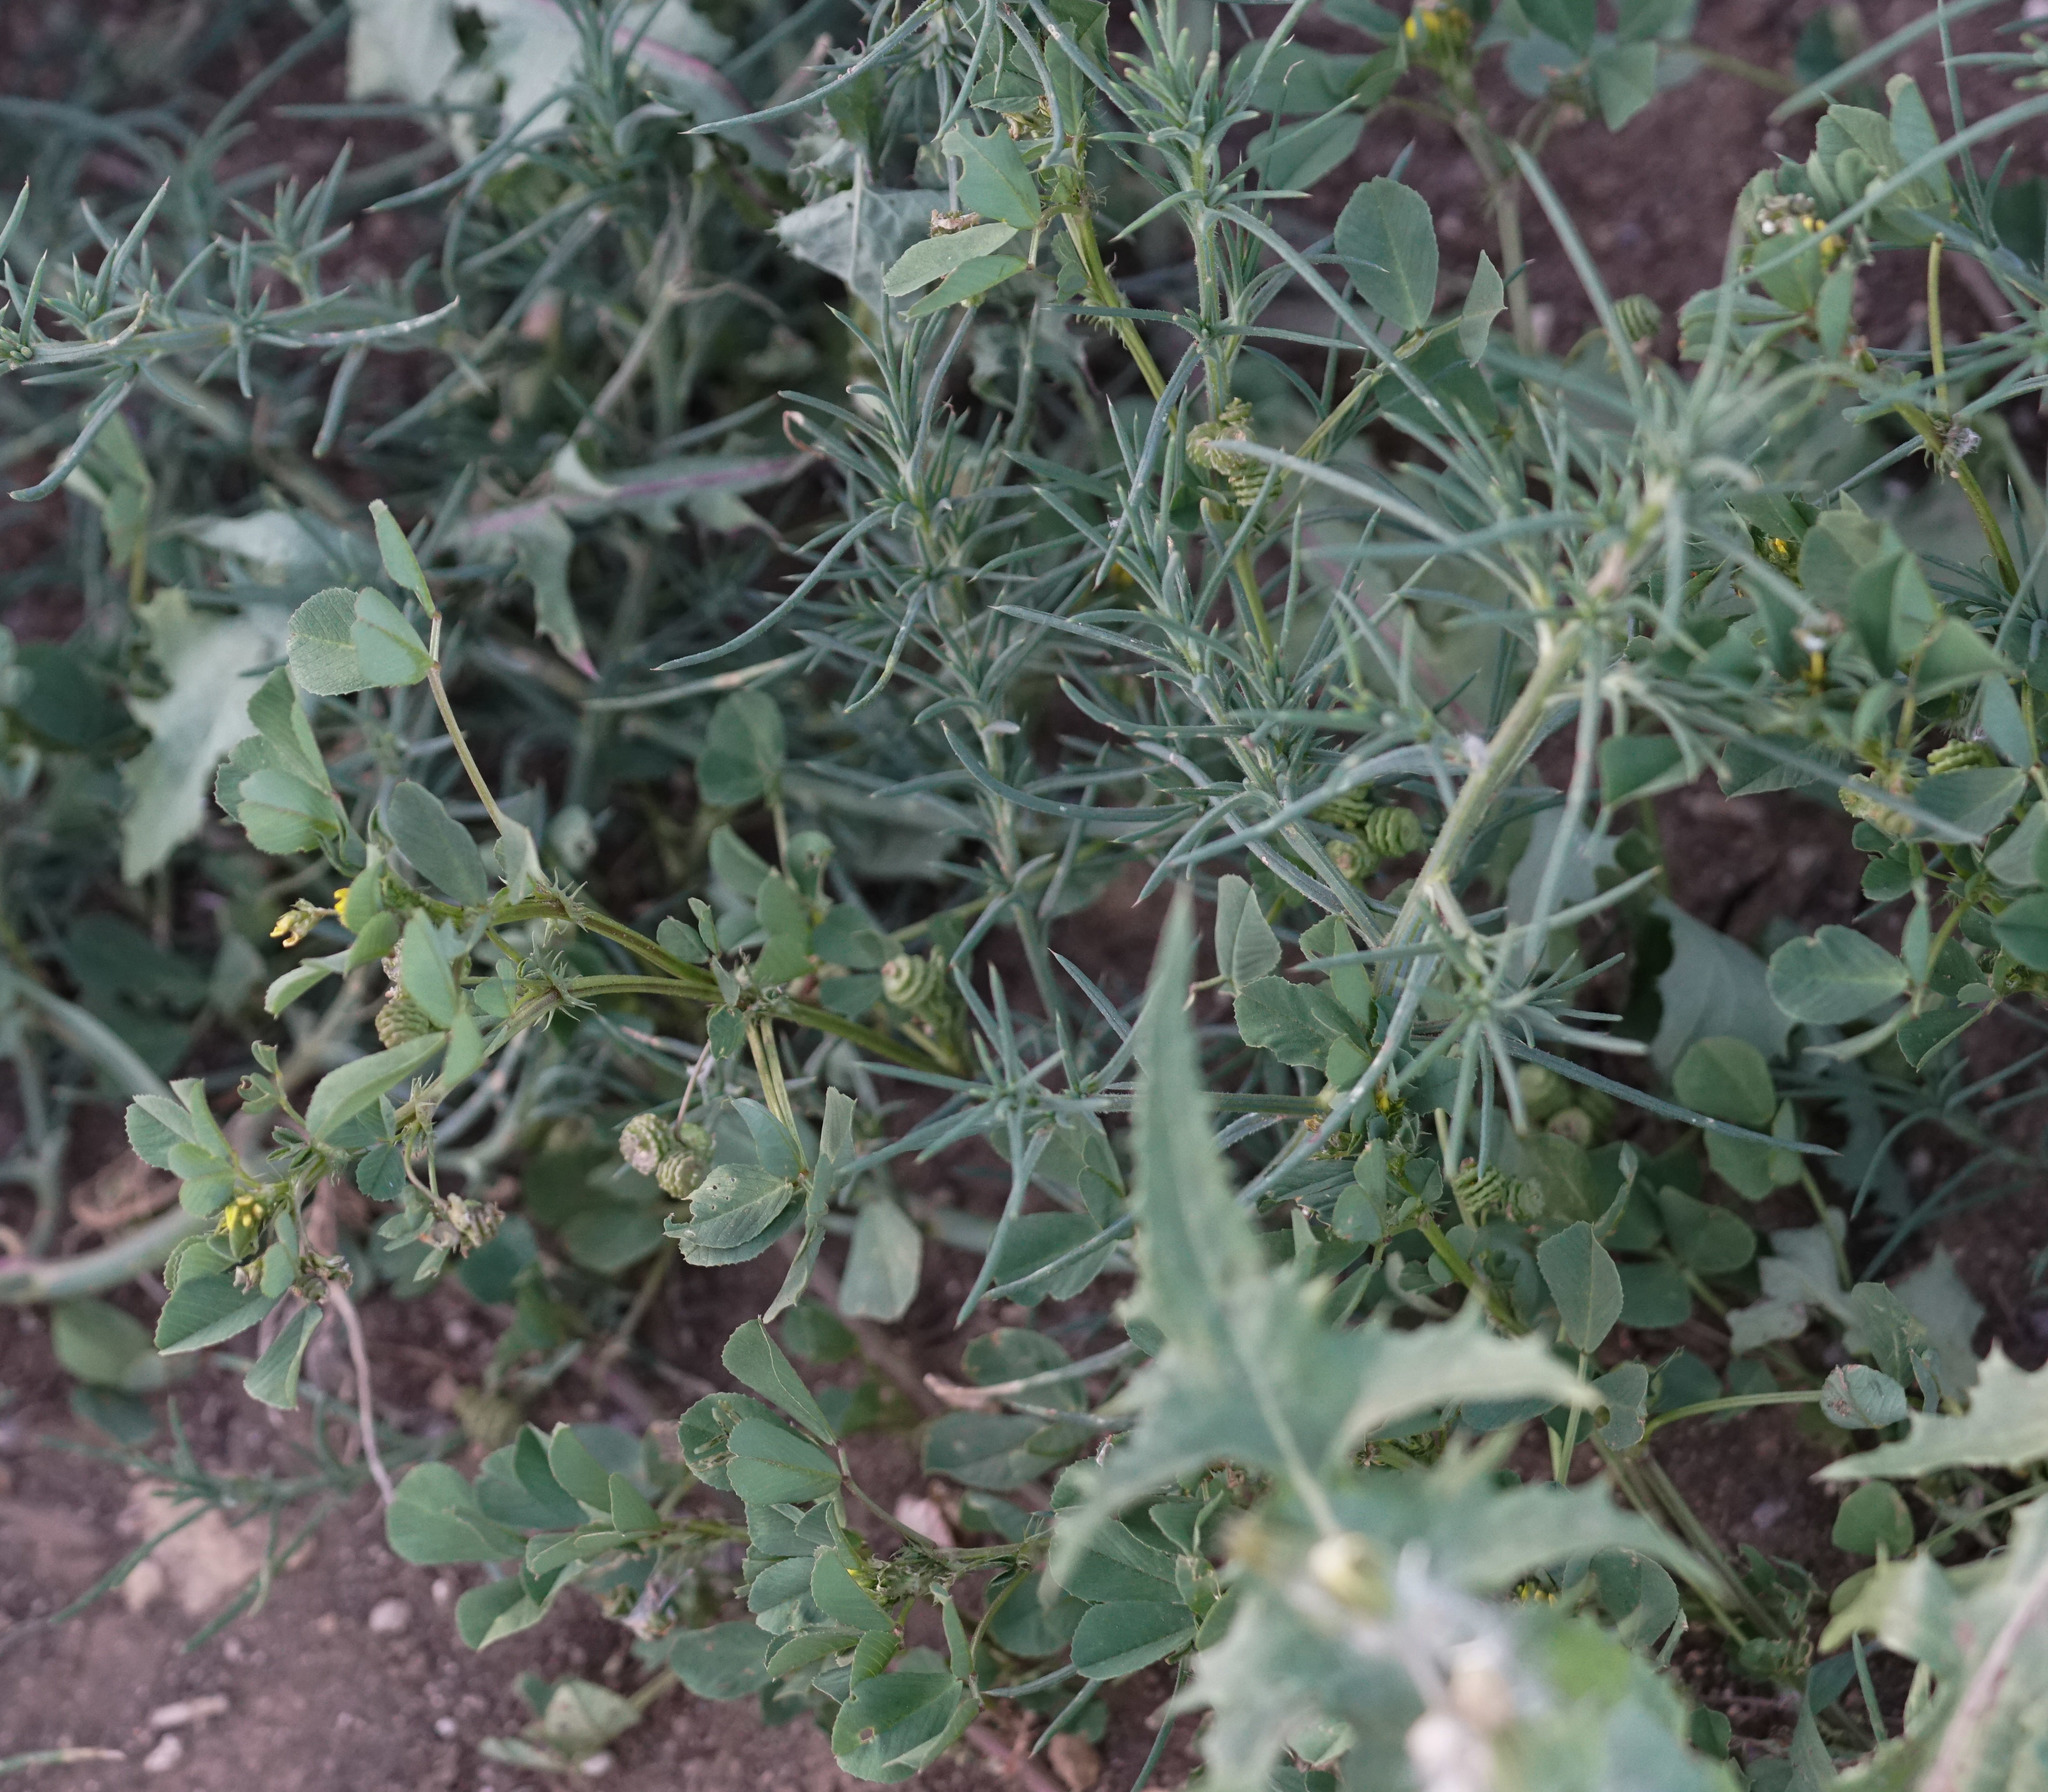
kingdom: Plantae
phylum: Tracheophyta
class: Magnoliopsida
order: Fabales
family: Fabaceae
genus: Medicago
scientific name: Medicago polymorpha
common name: Burclover
